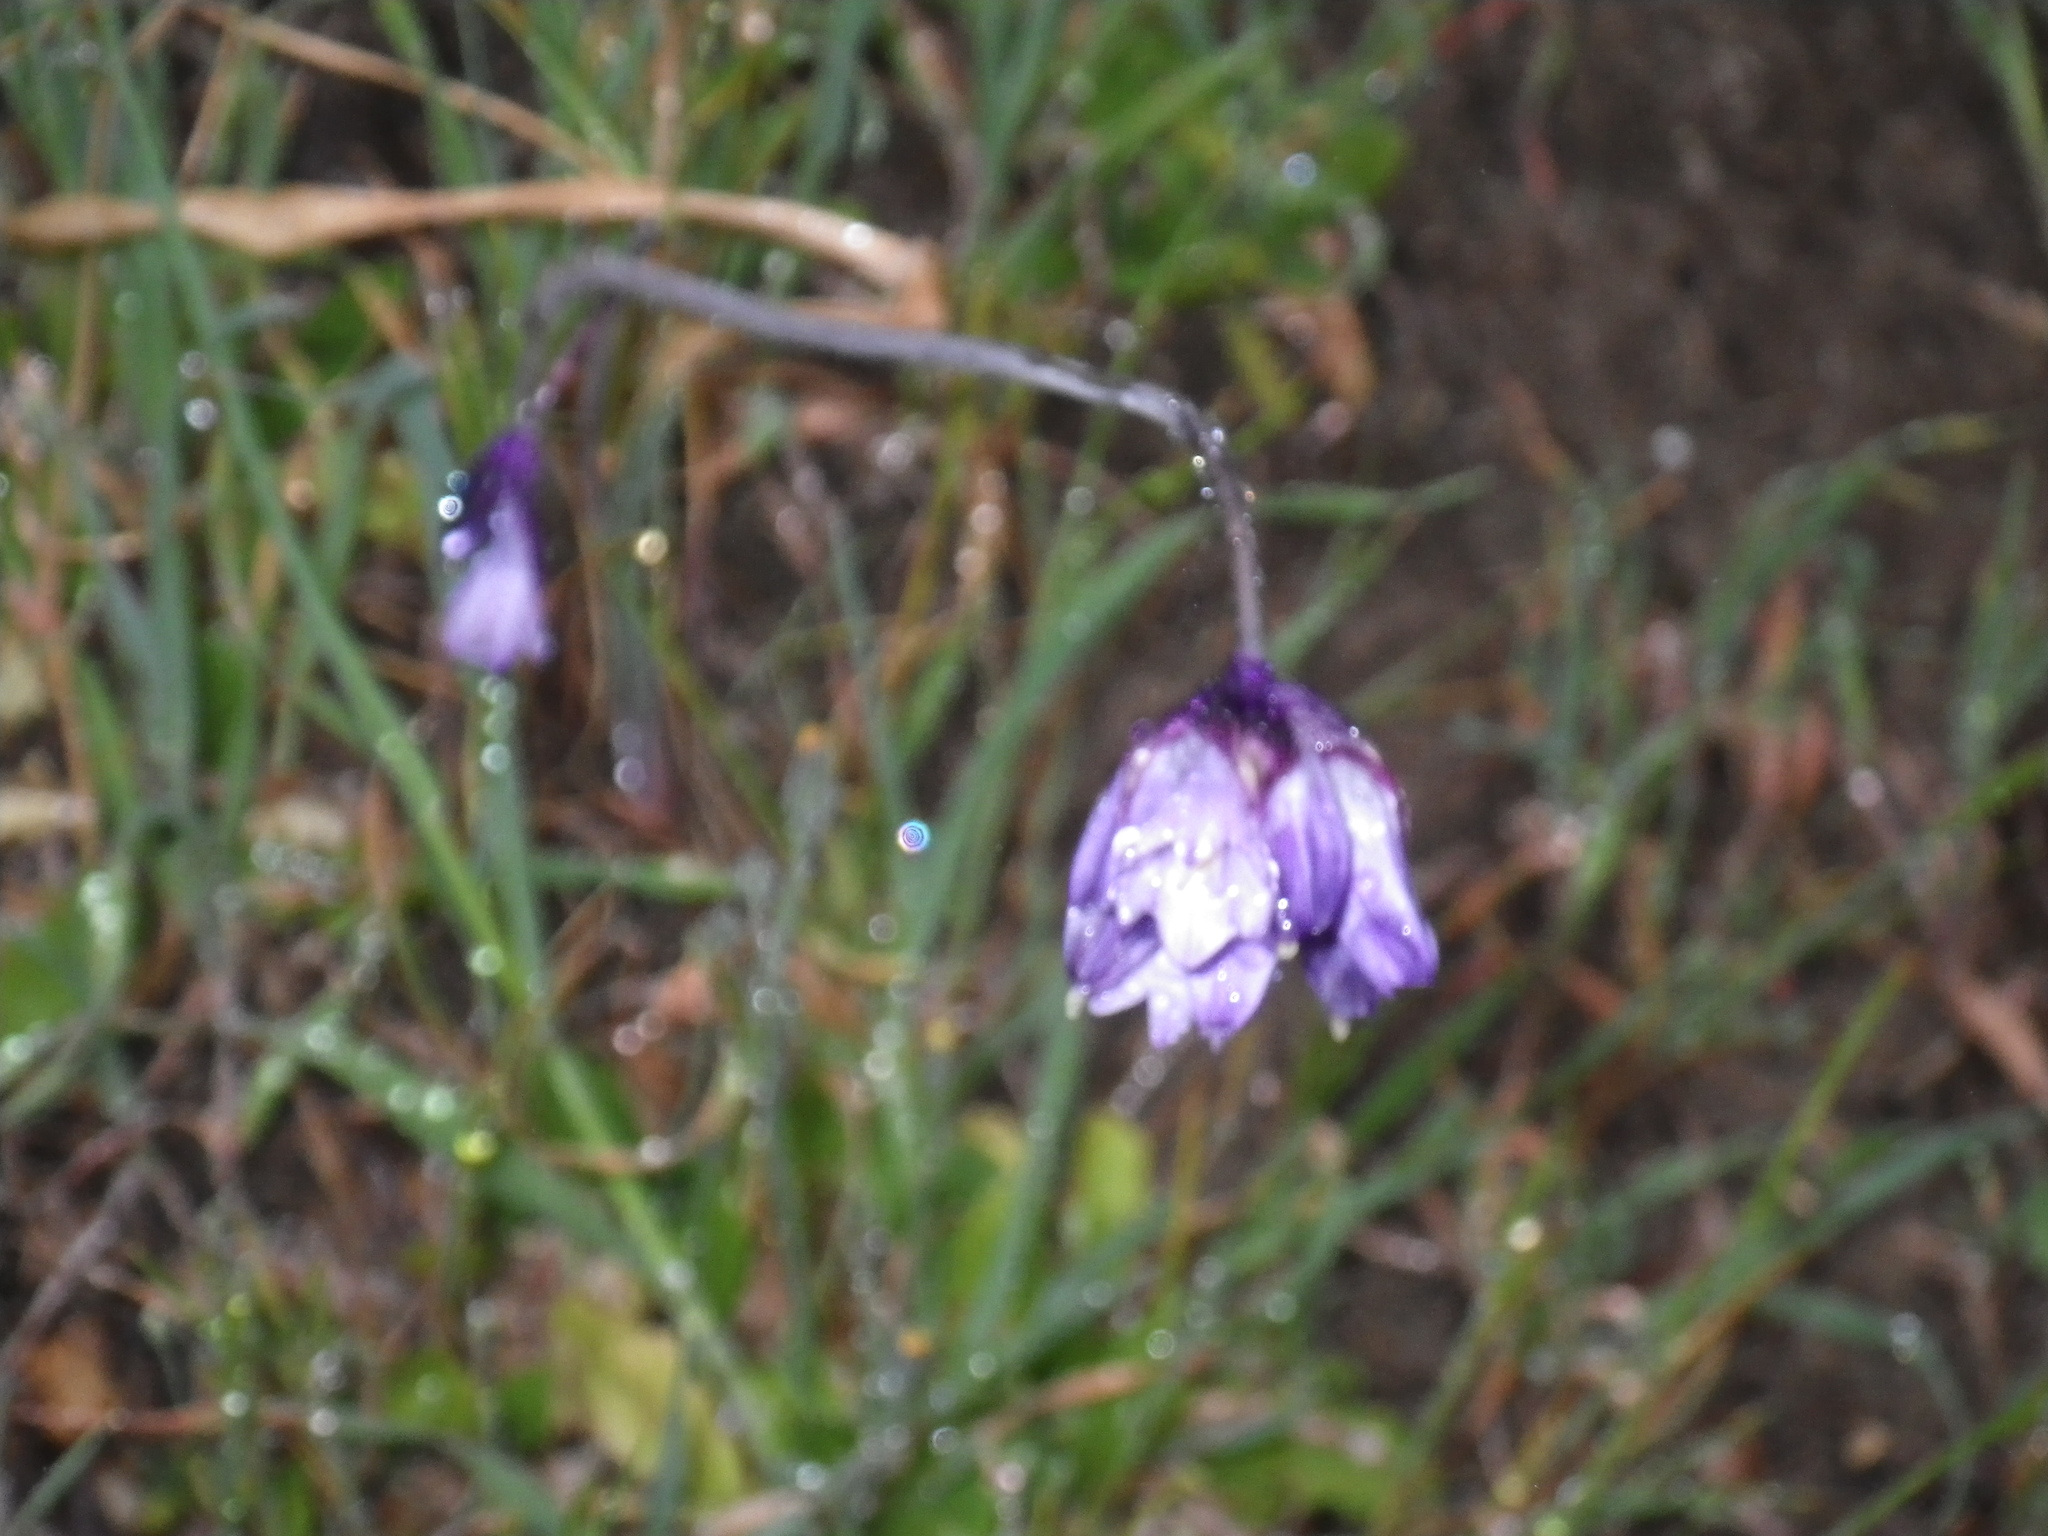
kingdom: Plantae
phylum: Tracheophyta
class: Liliopsida
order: Asparagales
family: Asparagaceae
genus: Dipterostemon
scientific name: Dipterostemon capitatus
